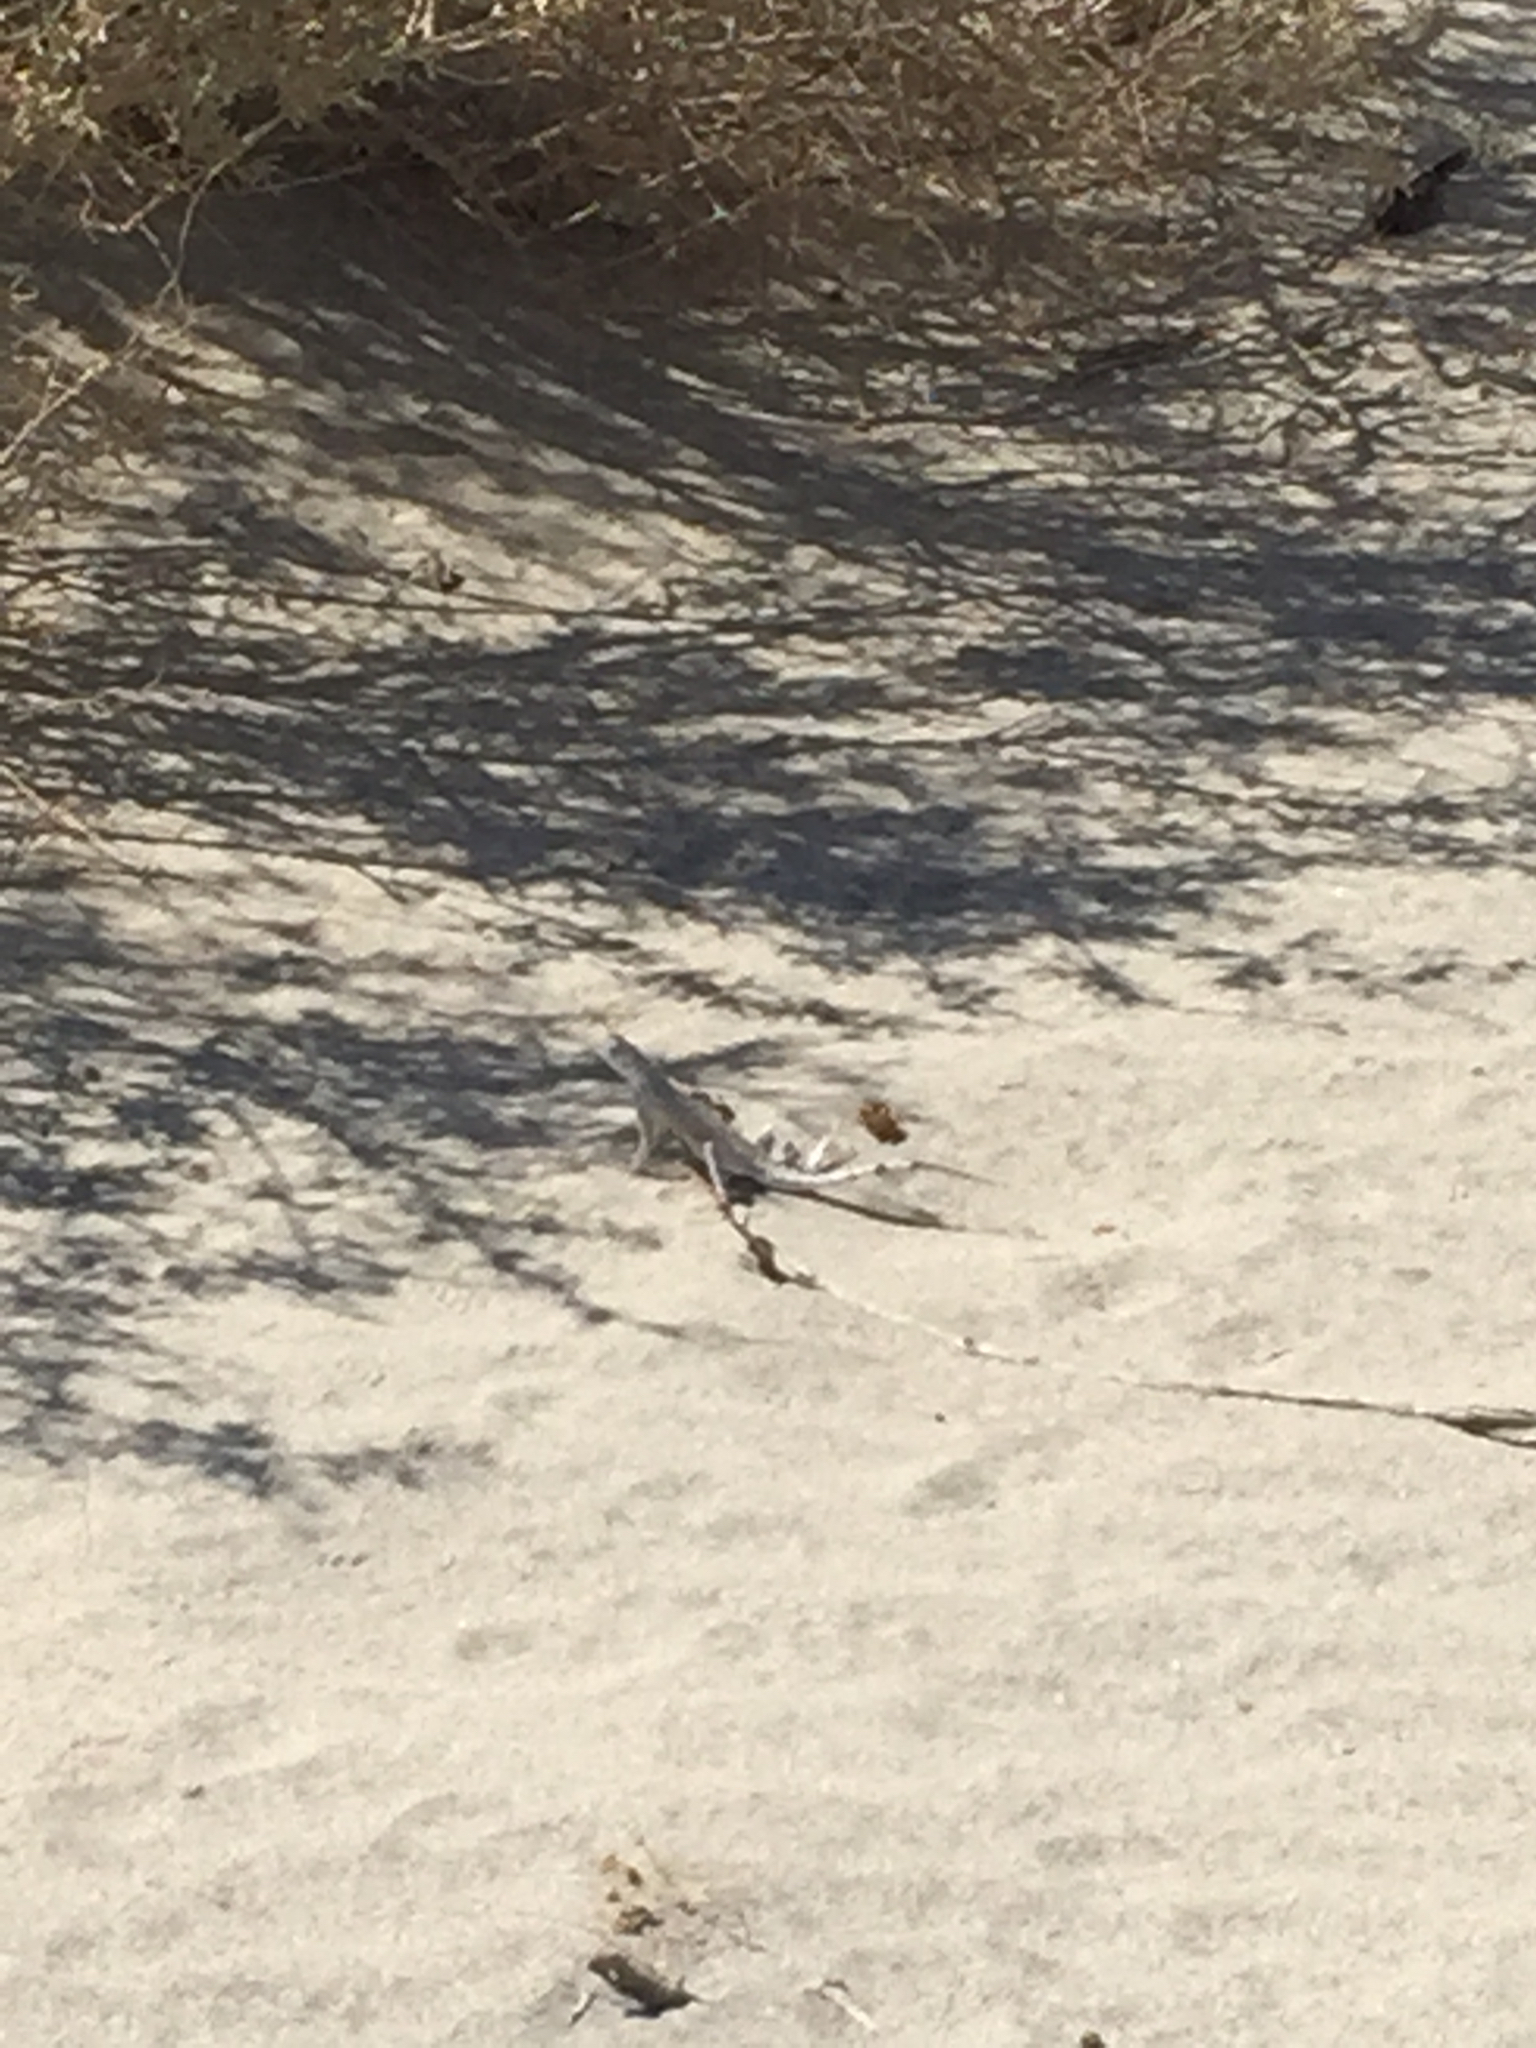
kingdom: Animalia
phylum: Chordata
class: Squamata
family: Phrynosomatidae
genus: Callisaurus
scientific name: Callisaurus draconoides
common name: Zebra-tailed lizard
